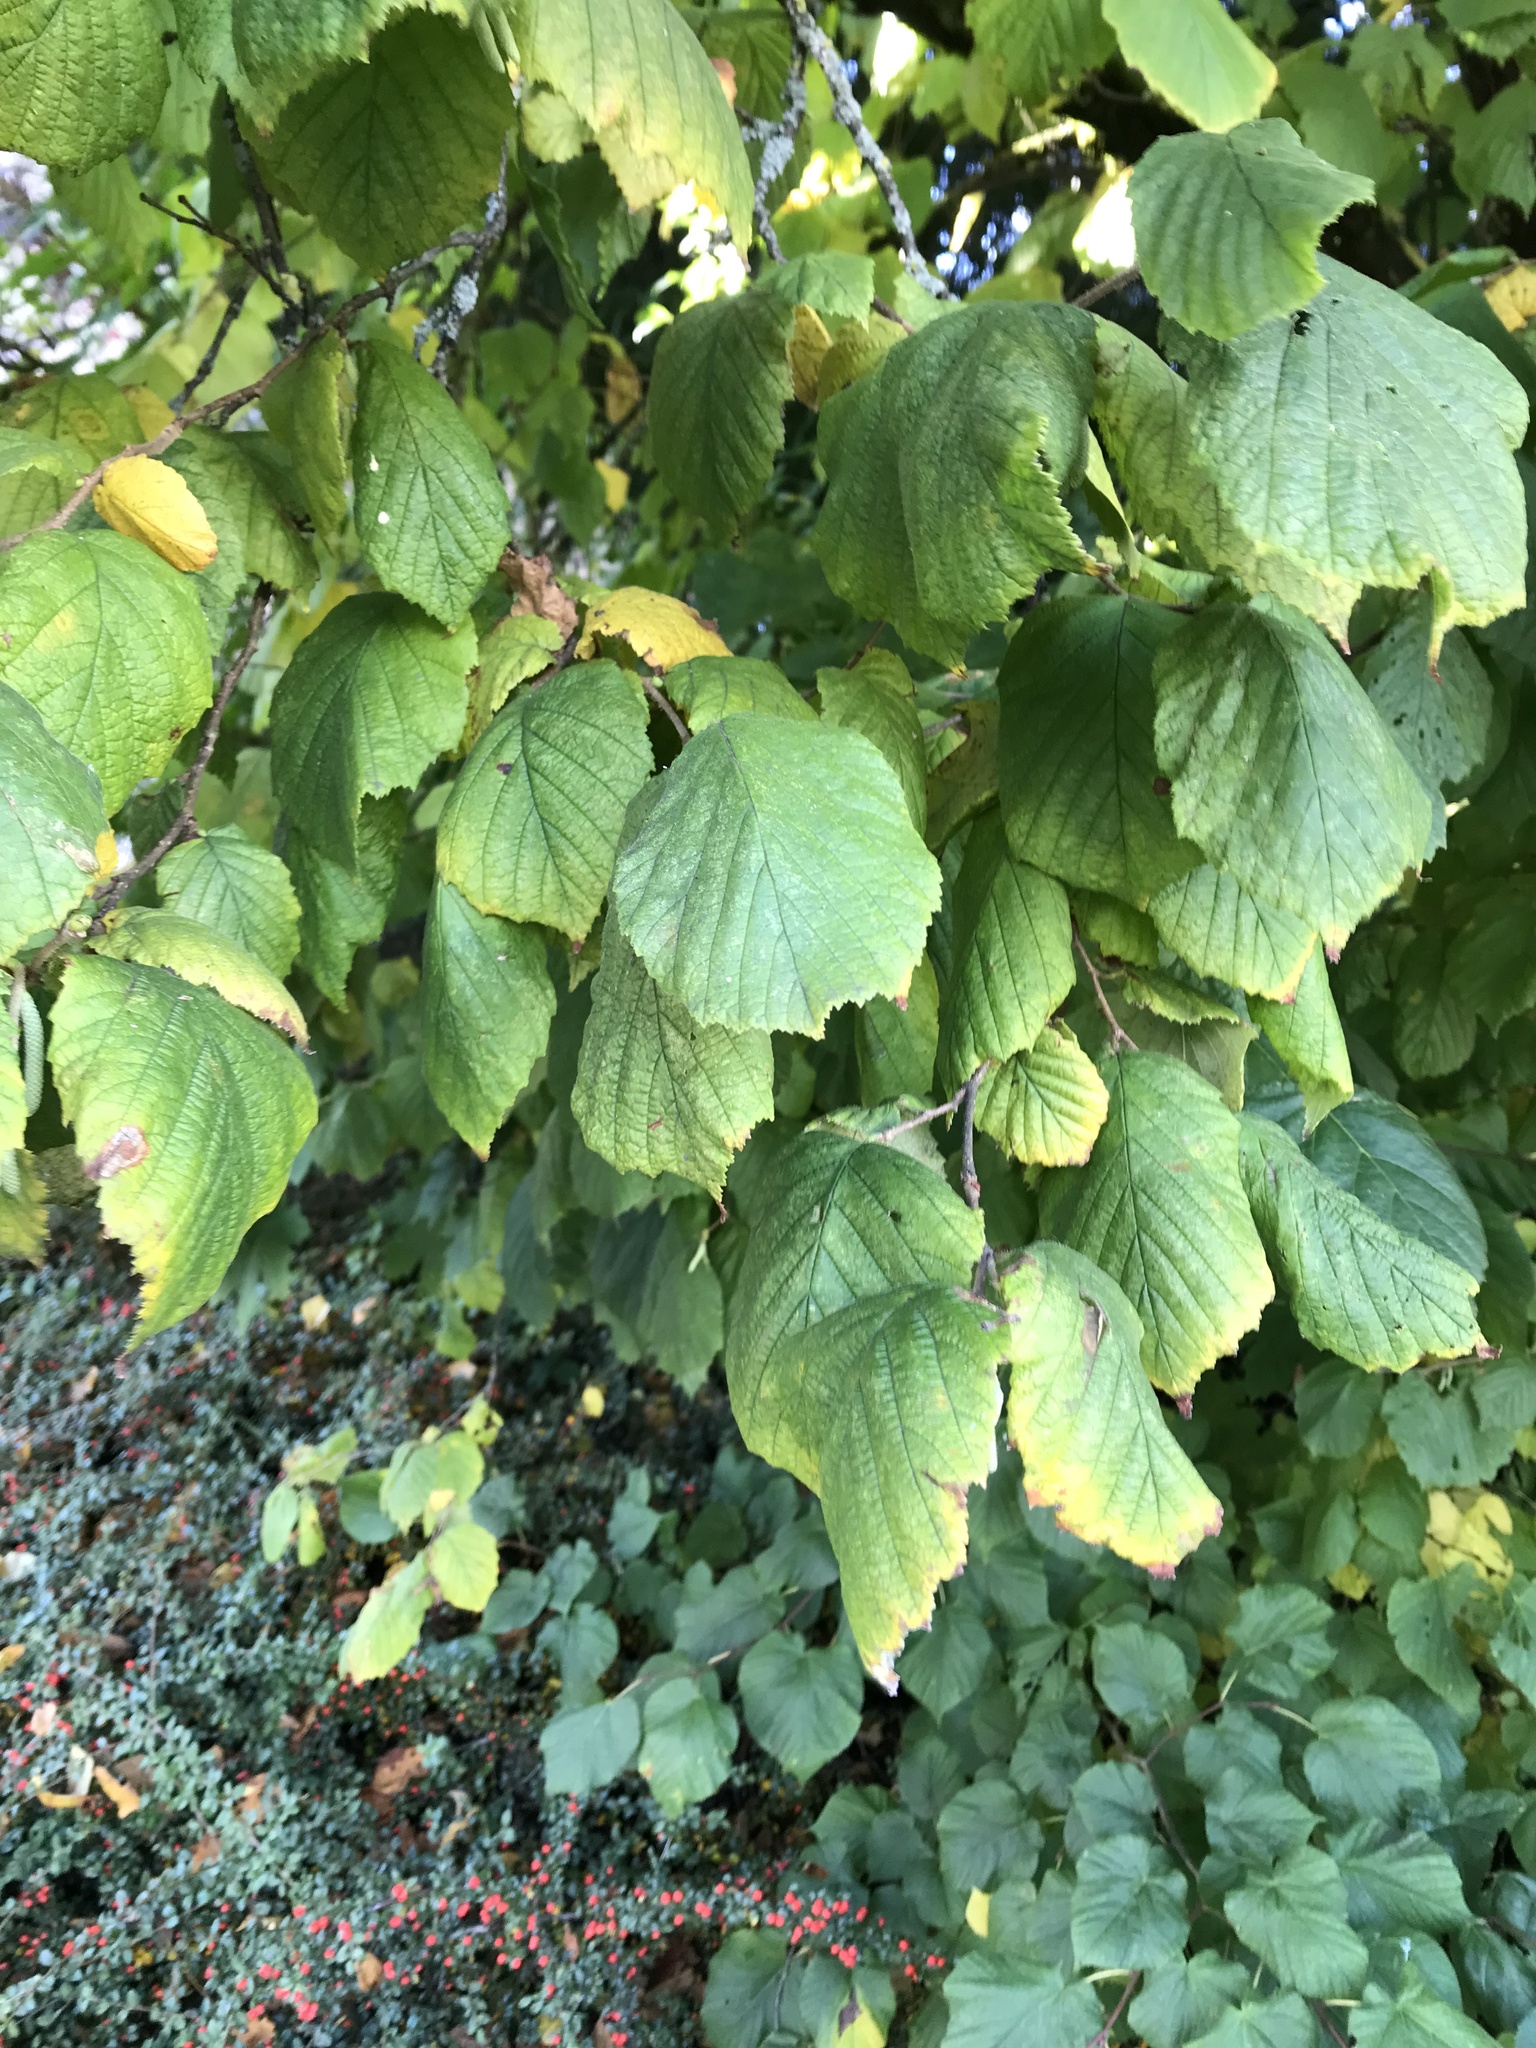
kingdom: Plantae
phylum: Tracheophyta
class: Magnoliopsida
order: Fagales
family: Betulaceae
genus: Corylus
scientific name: Corylus avellana
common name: European hazel
